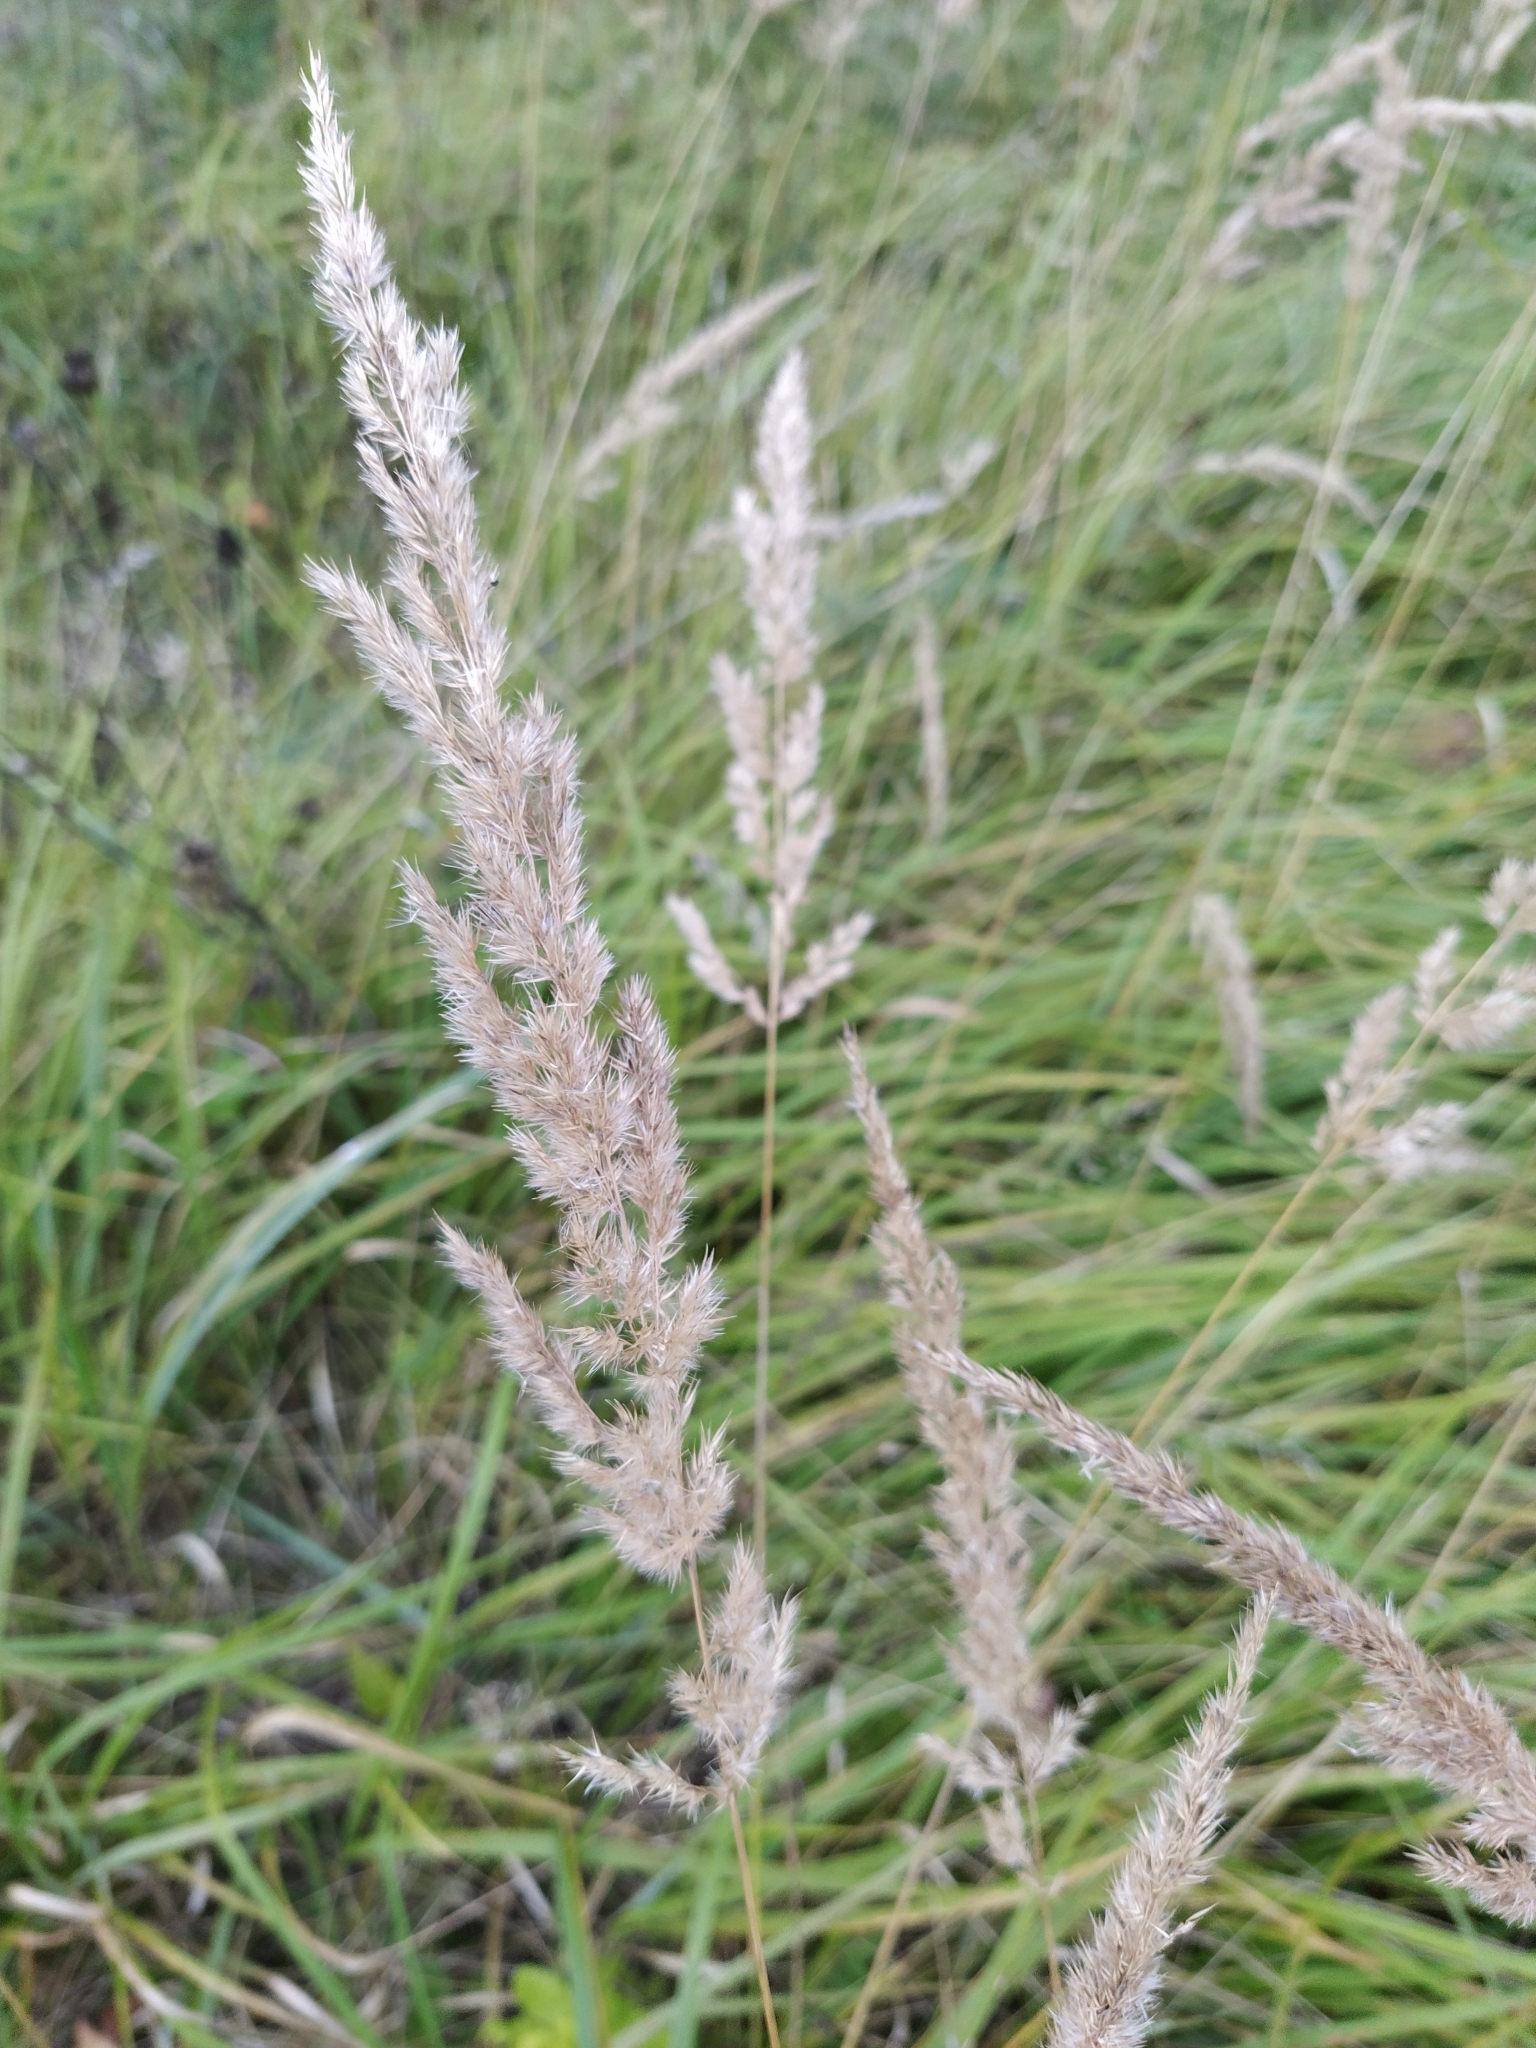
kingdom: Plantae
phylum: Tracheophyta
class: Liliopsida
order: Poales
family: Poaceae
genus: Calamagrostis
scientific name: Calamagrostis epigejos
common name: Wood small-reed
